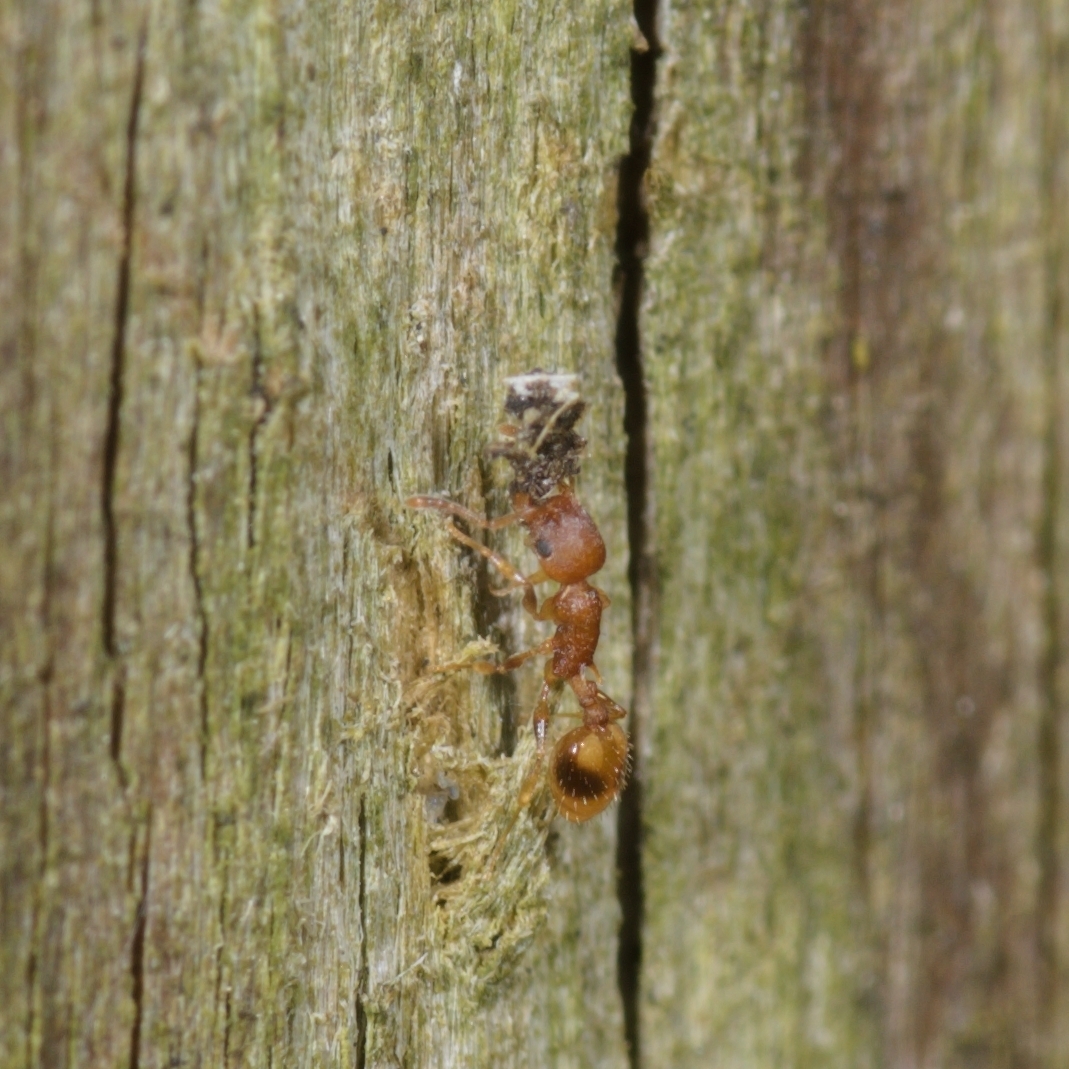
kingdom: Animalia
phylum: Arthropoda
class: Insecta
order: Hymenoptera
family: Formicidae
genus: Temnothorax
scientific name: Temnothorax curvispinosus
